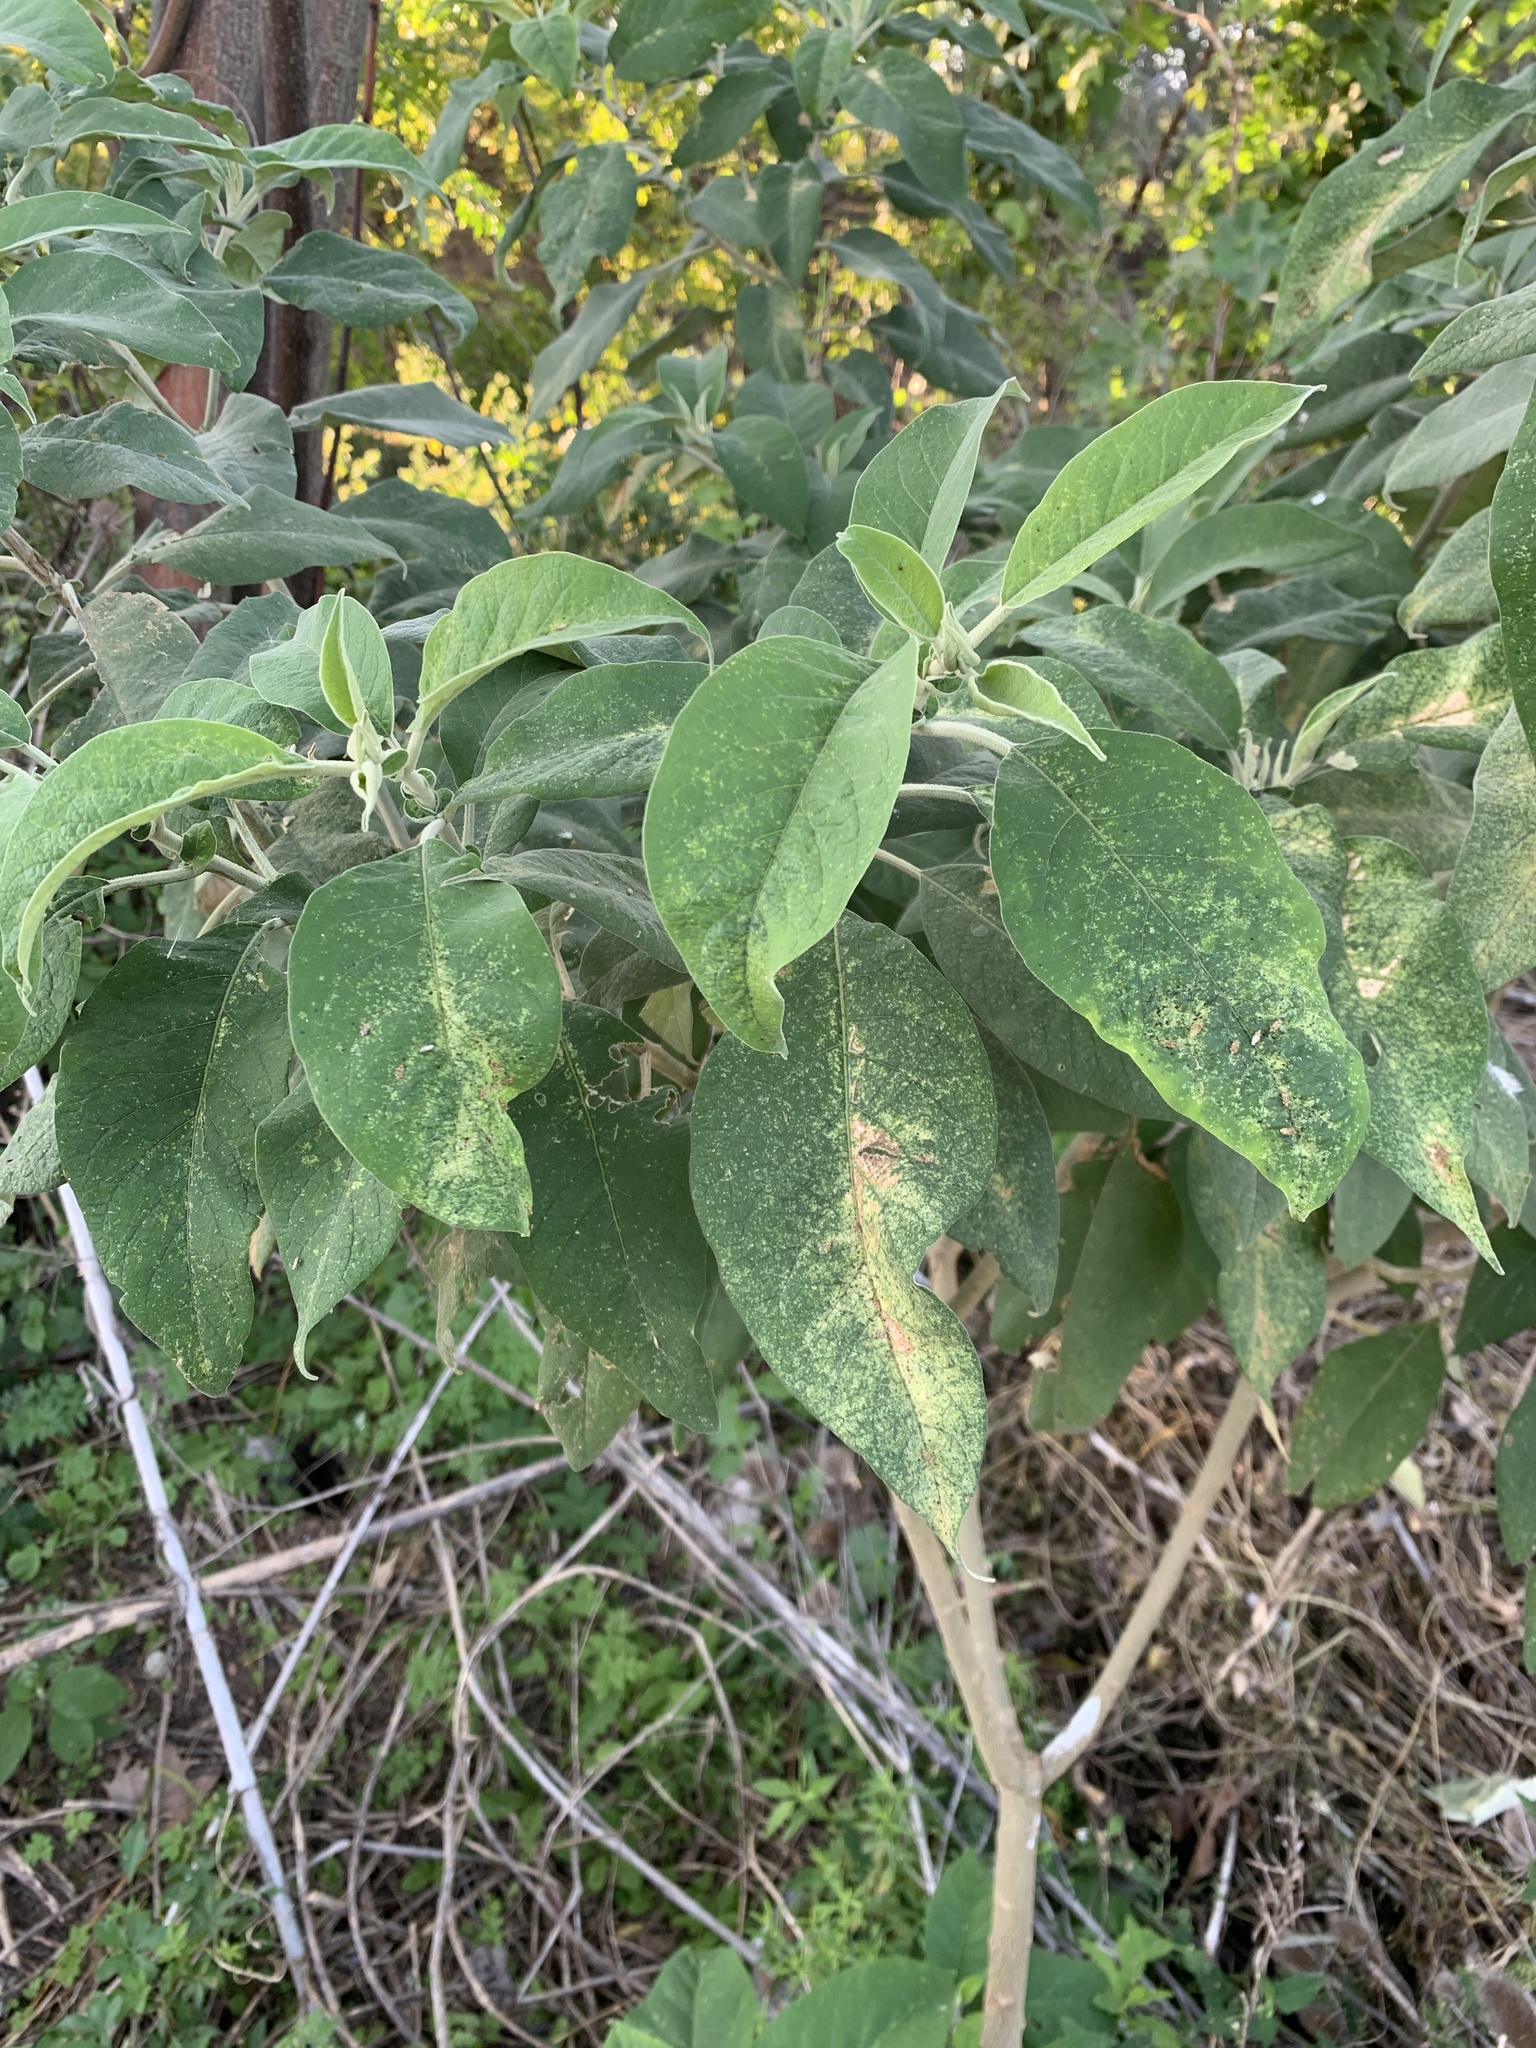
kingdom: Plantae
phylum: Tracheophyta
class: Magnoliopsida
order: Solanales
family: Solanaceae
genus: Solanum
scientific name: Solanum granulosoleprosum
